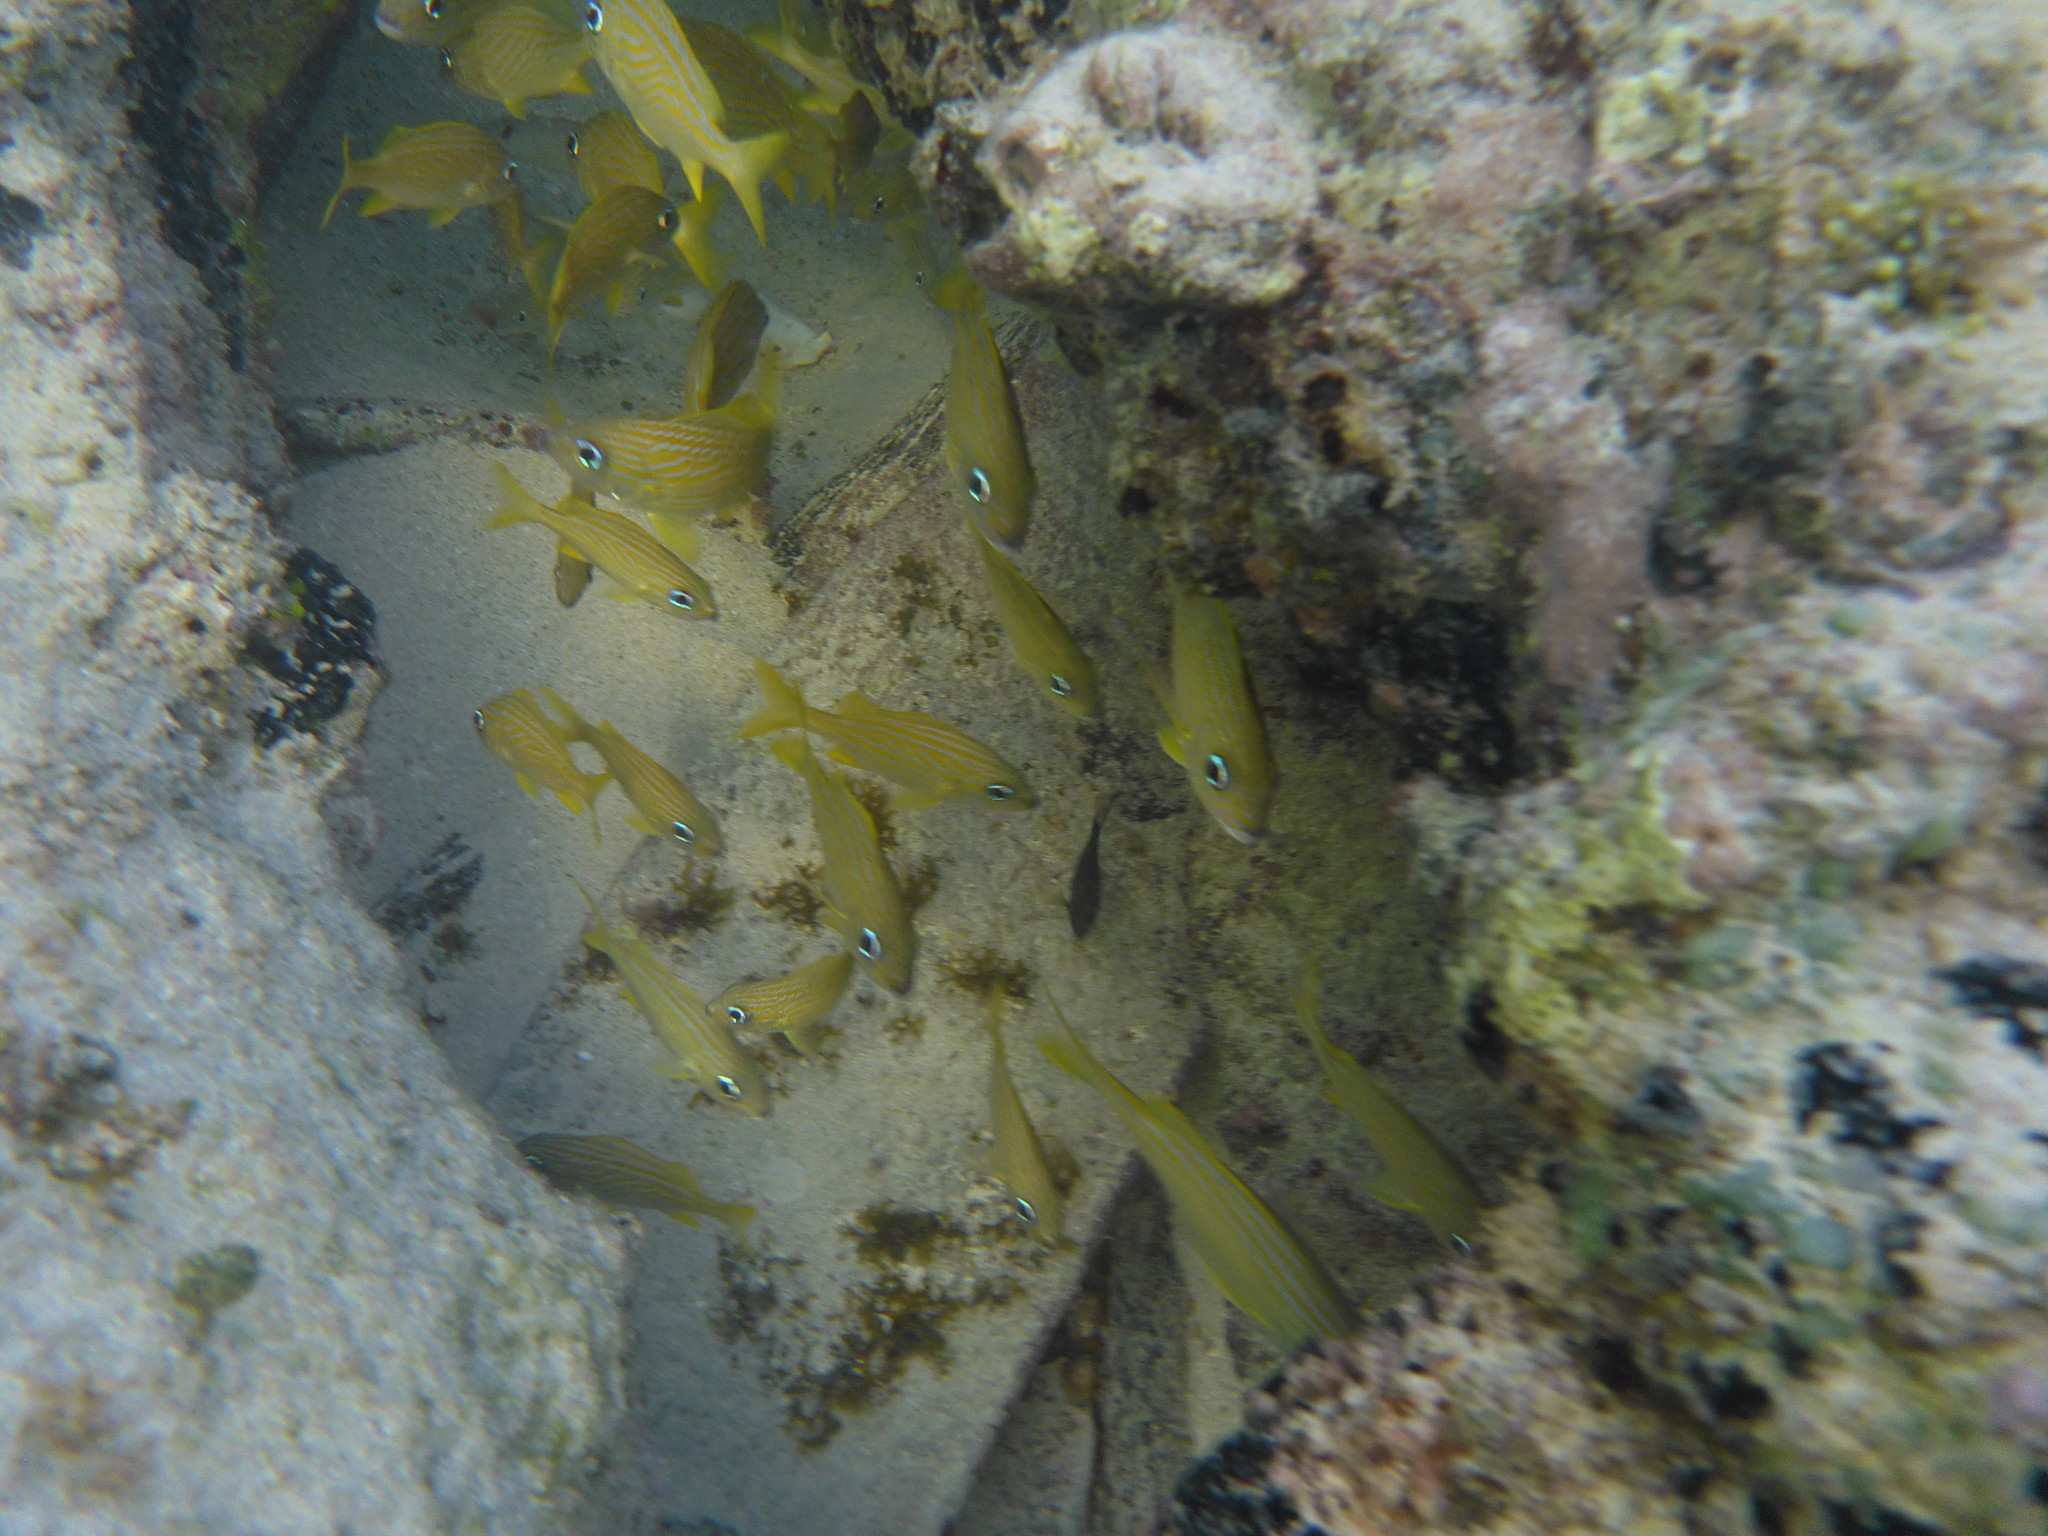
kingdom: Animalia
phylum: Chordata
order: Perciformes
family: Haemulidae
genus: Haemulon
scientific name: Haemulon flavolineatum
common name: French grunt
